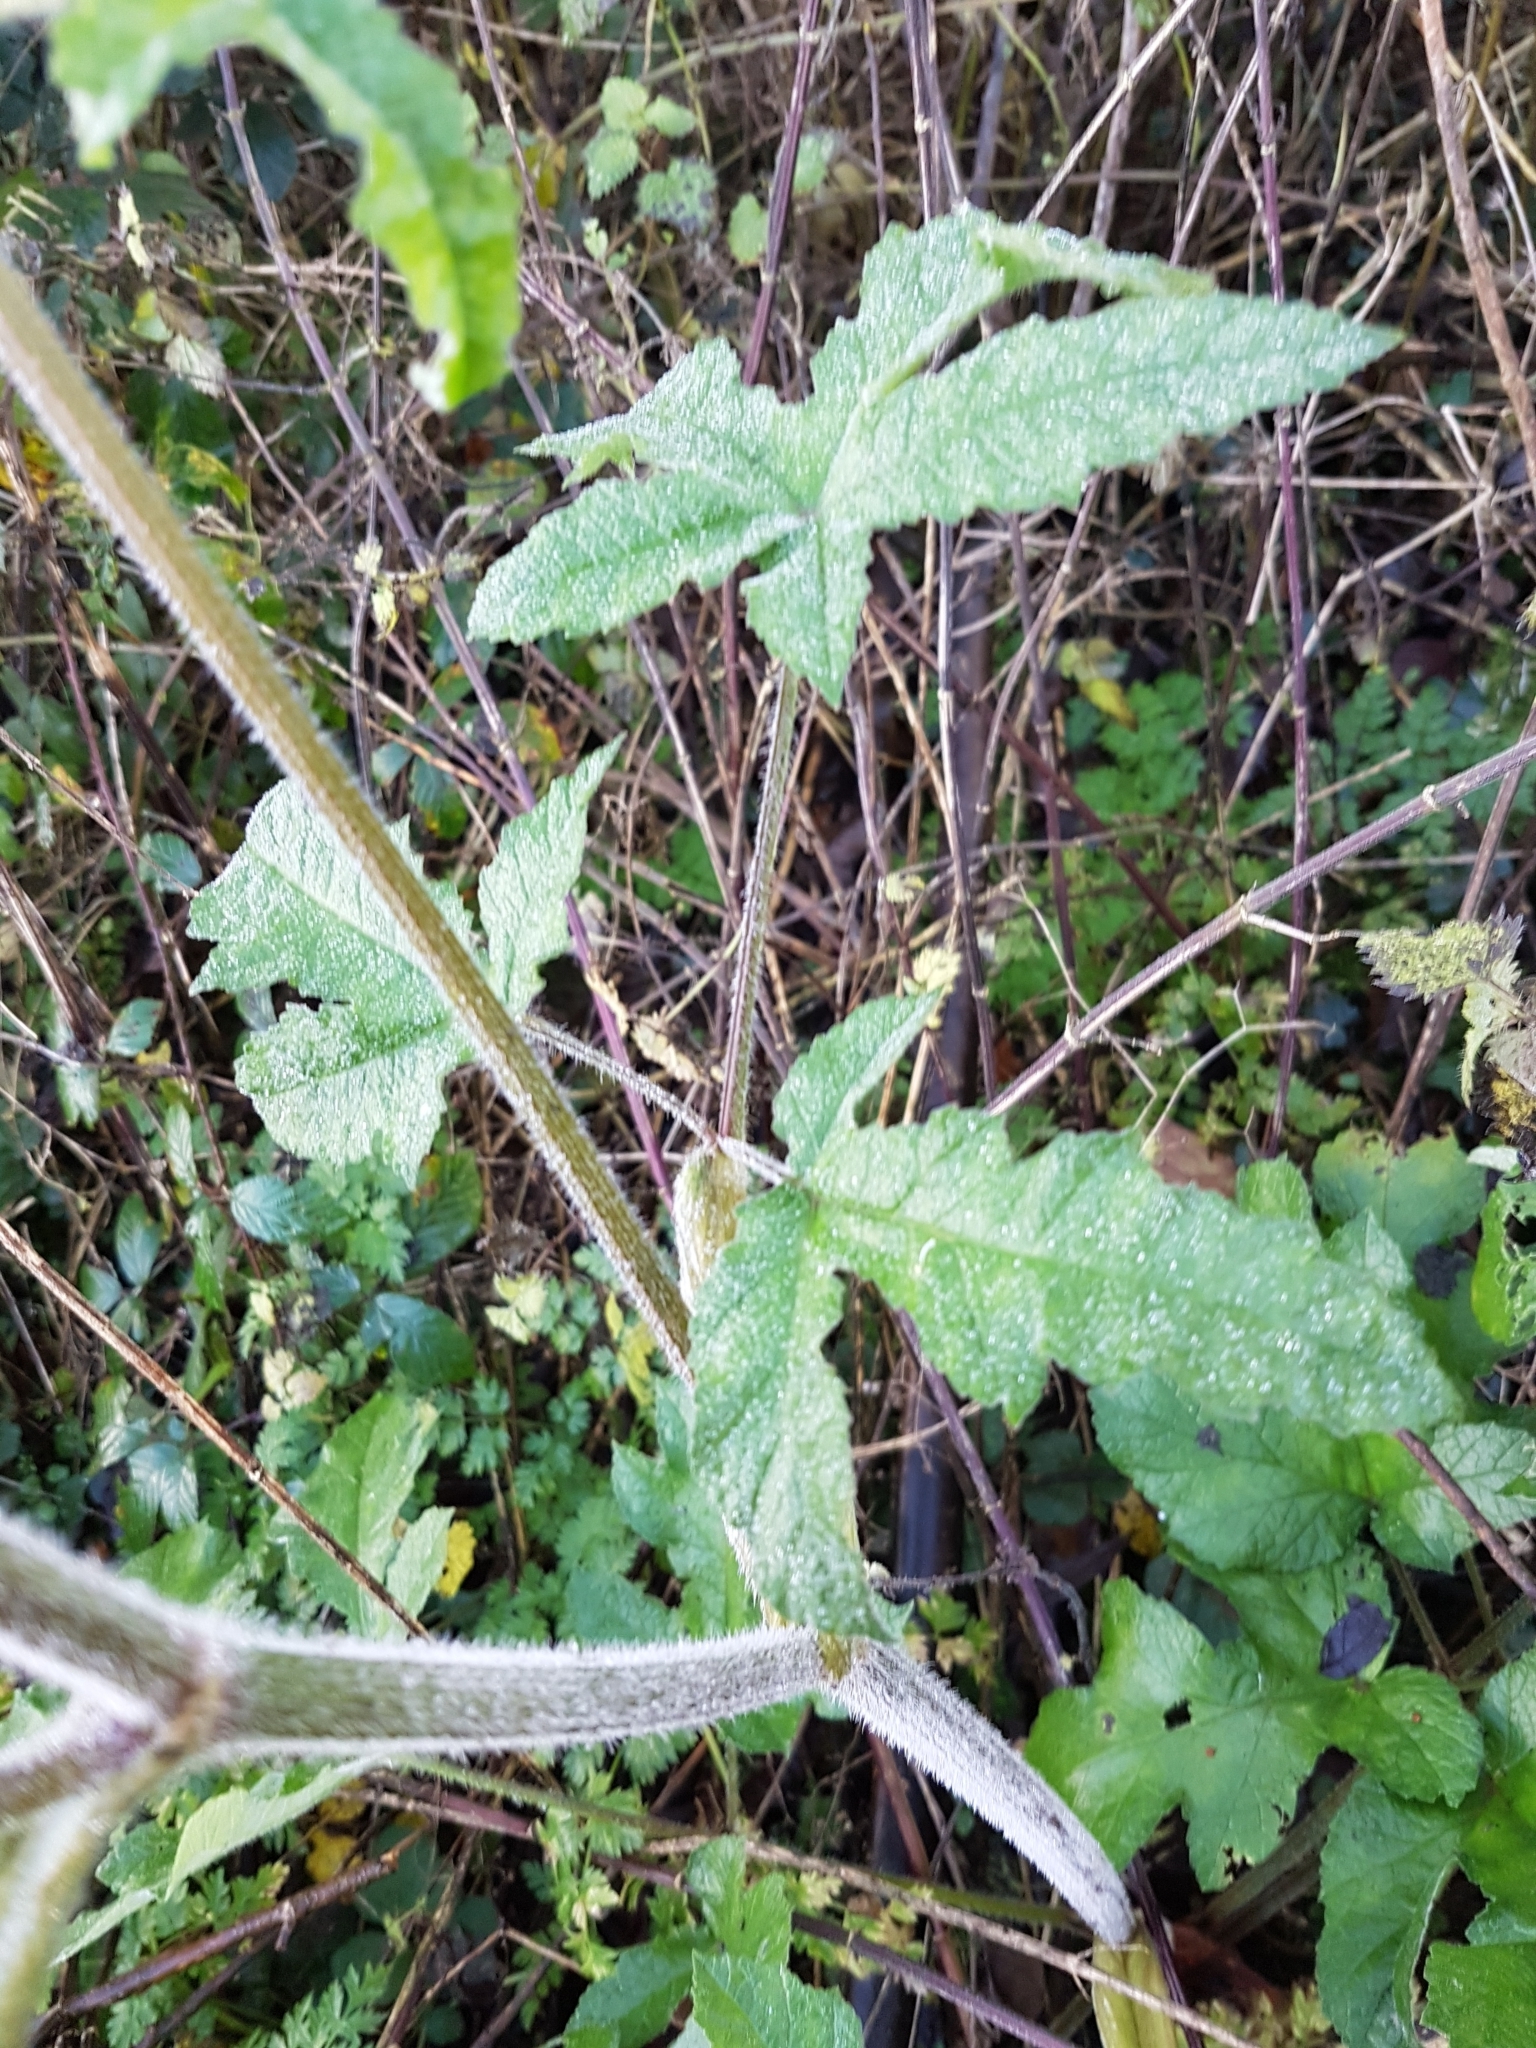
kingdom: Plantae
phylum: Tracheophyta
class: Magnoliopsida
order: Apiales
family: Apiaceae
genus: Heracleum
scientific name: Heracleum sphondylium
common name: Hogweed
